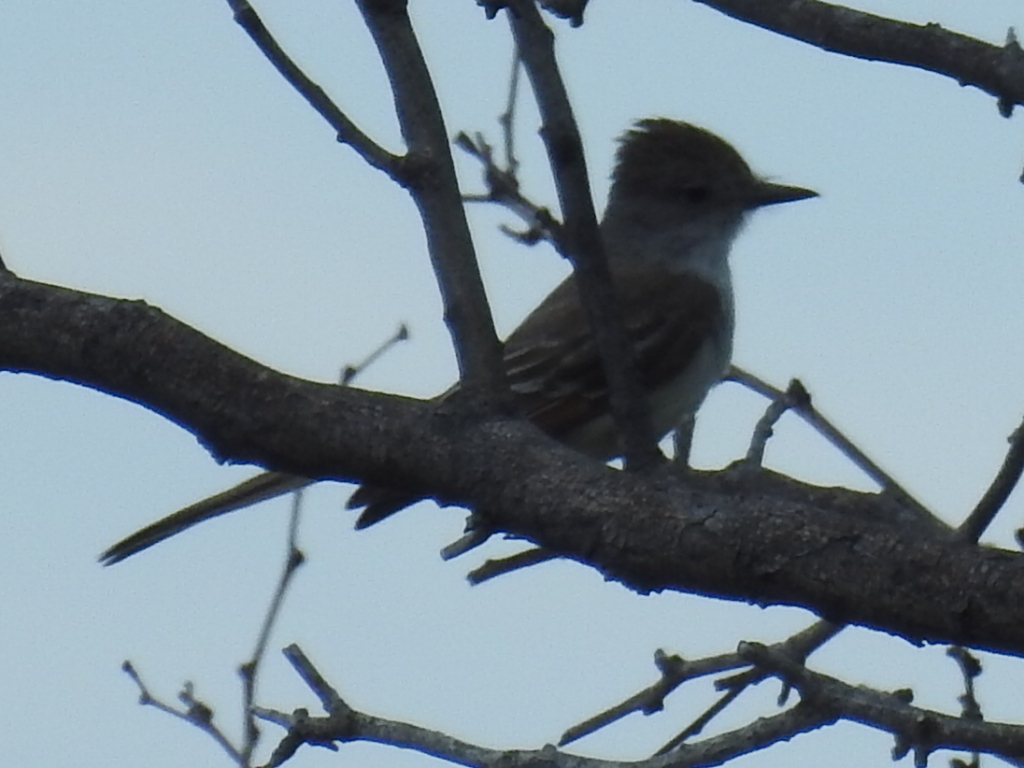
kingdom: Animalia
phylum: Chordata
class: Aves
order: Passeriformes
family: Tyrannidae
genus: Myiarchus
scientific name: Myiarchus cinerascens
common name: Ash-throated flycatcher
